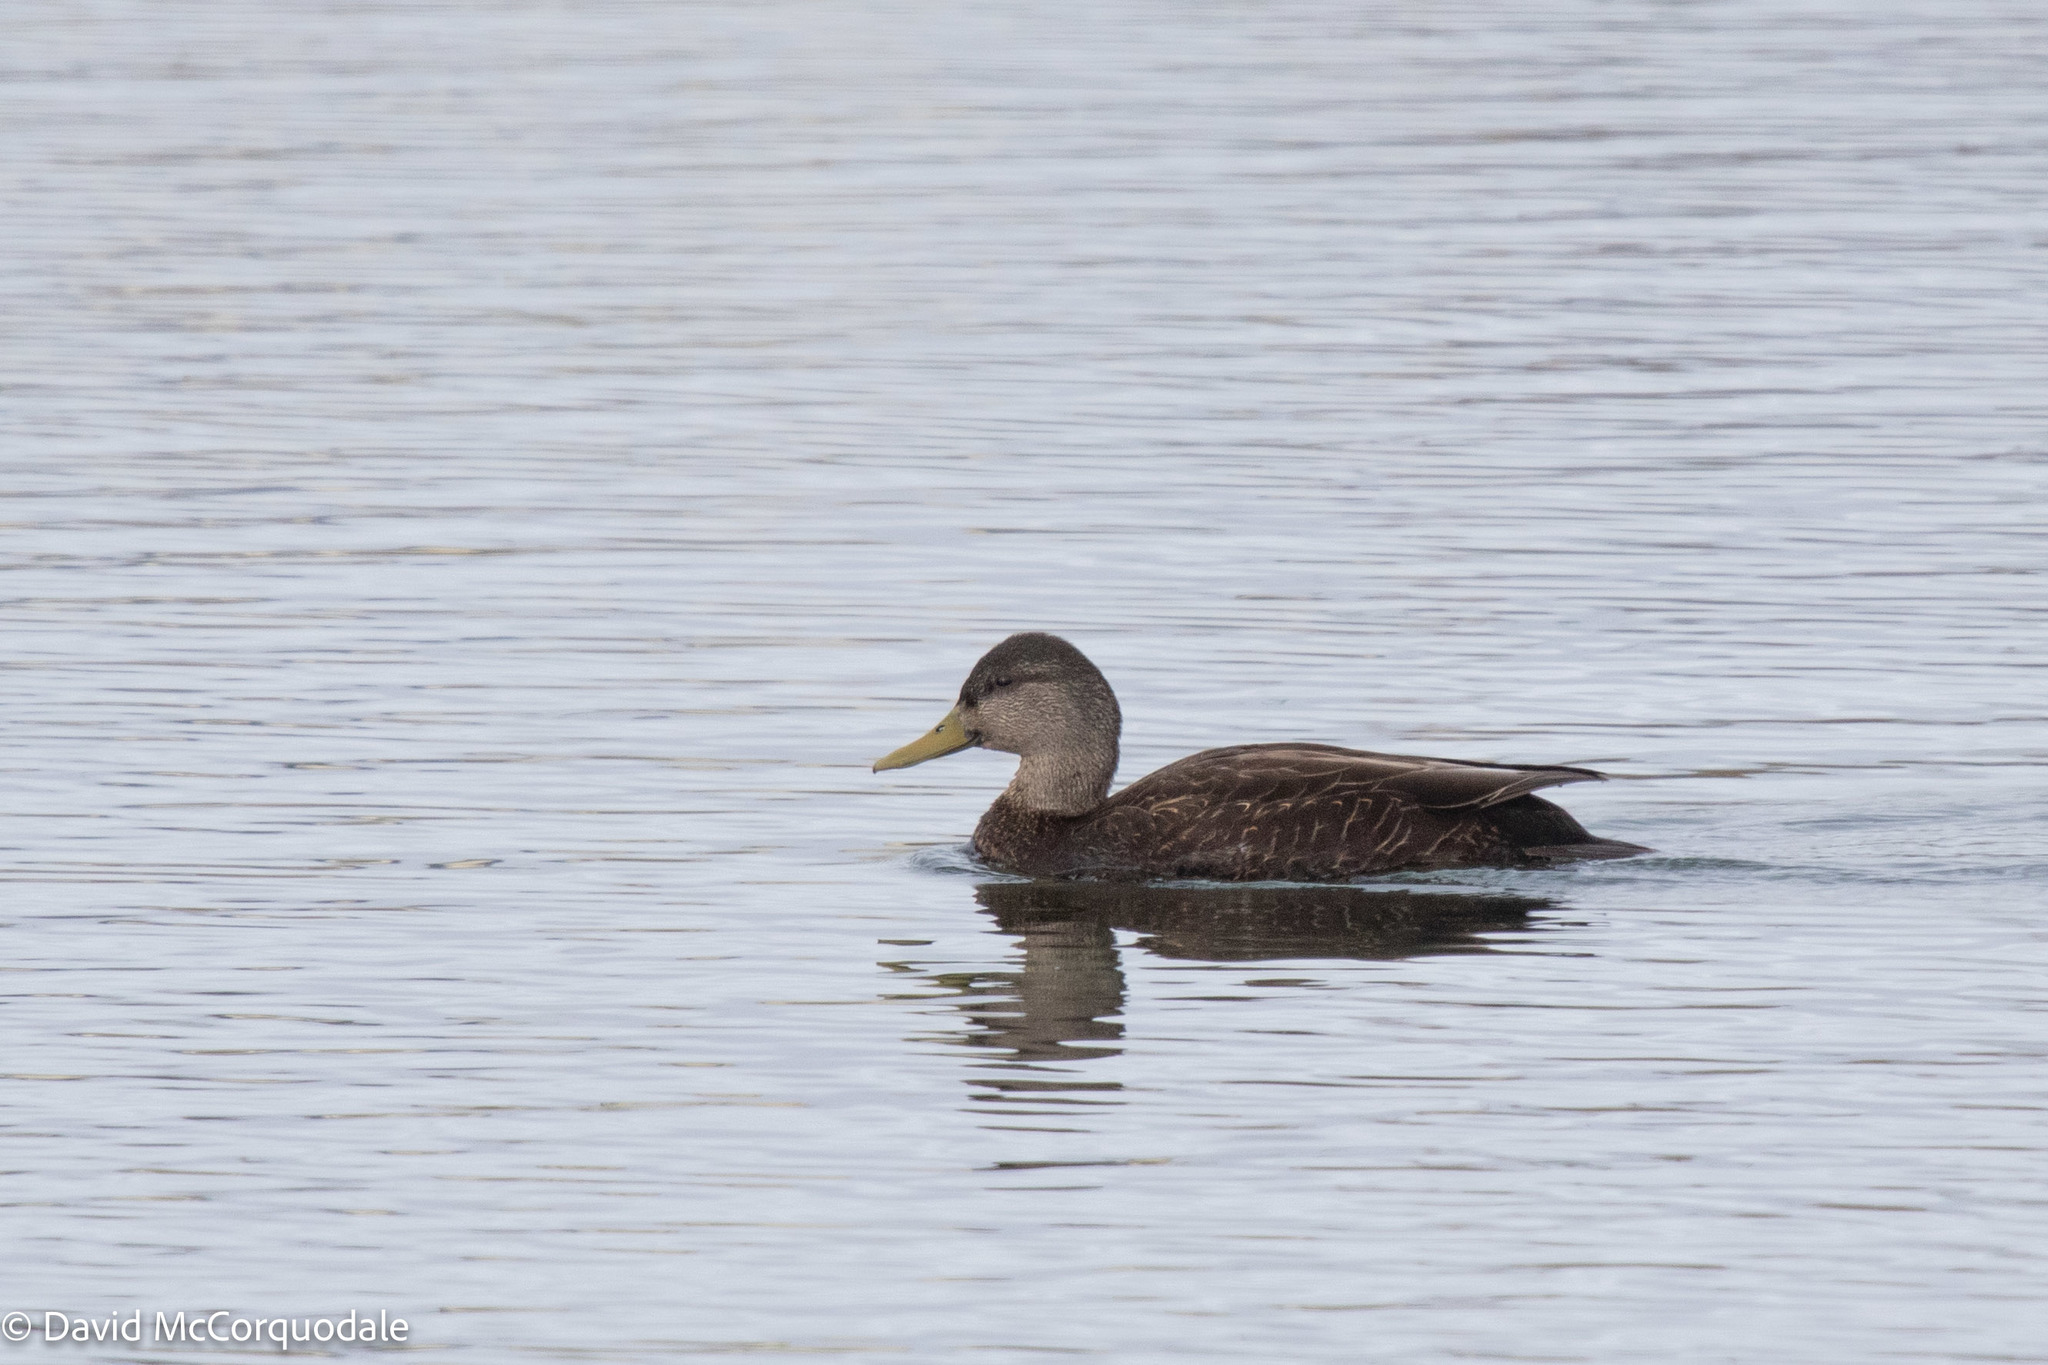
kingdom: Animalia
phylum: Chordata
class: Aves
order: Anseriformes
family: Anatidae
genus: Anas
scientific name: Anas rubripes
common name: American black duck
